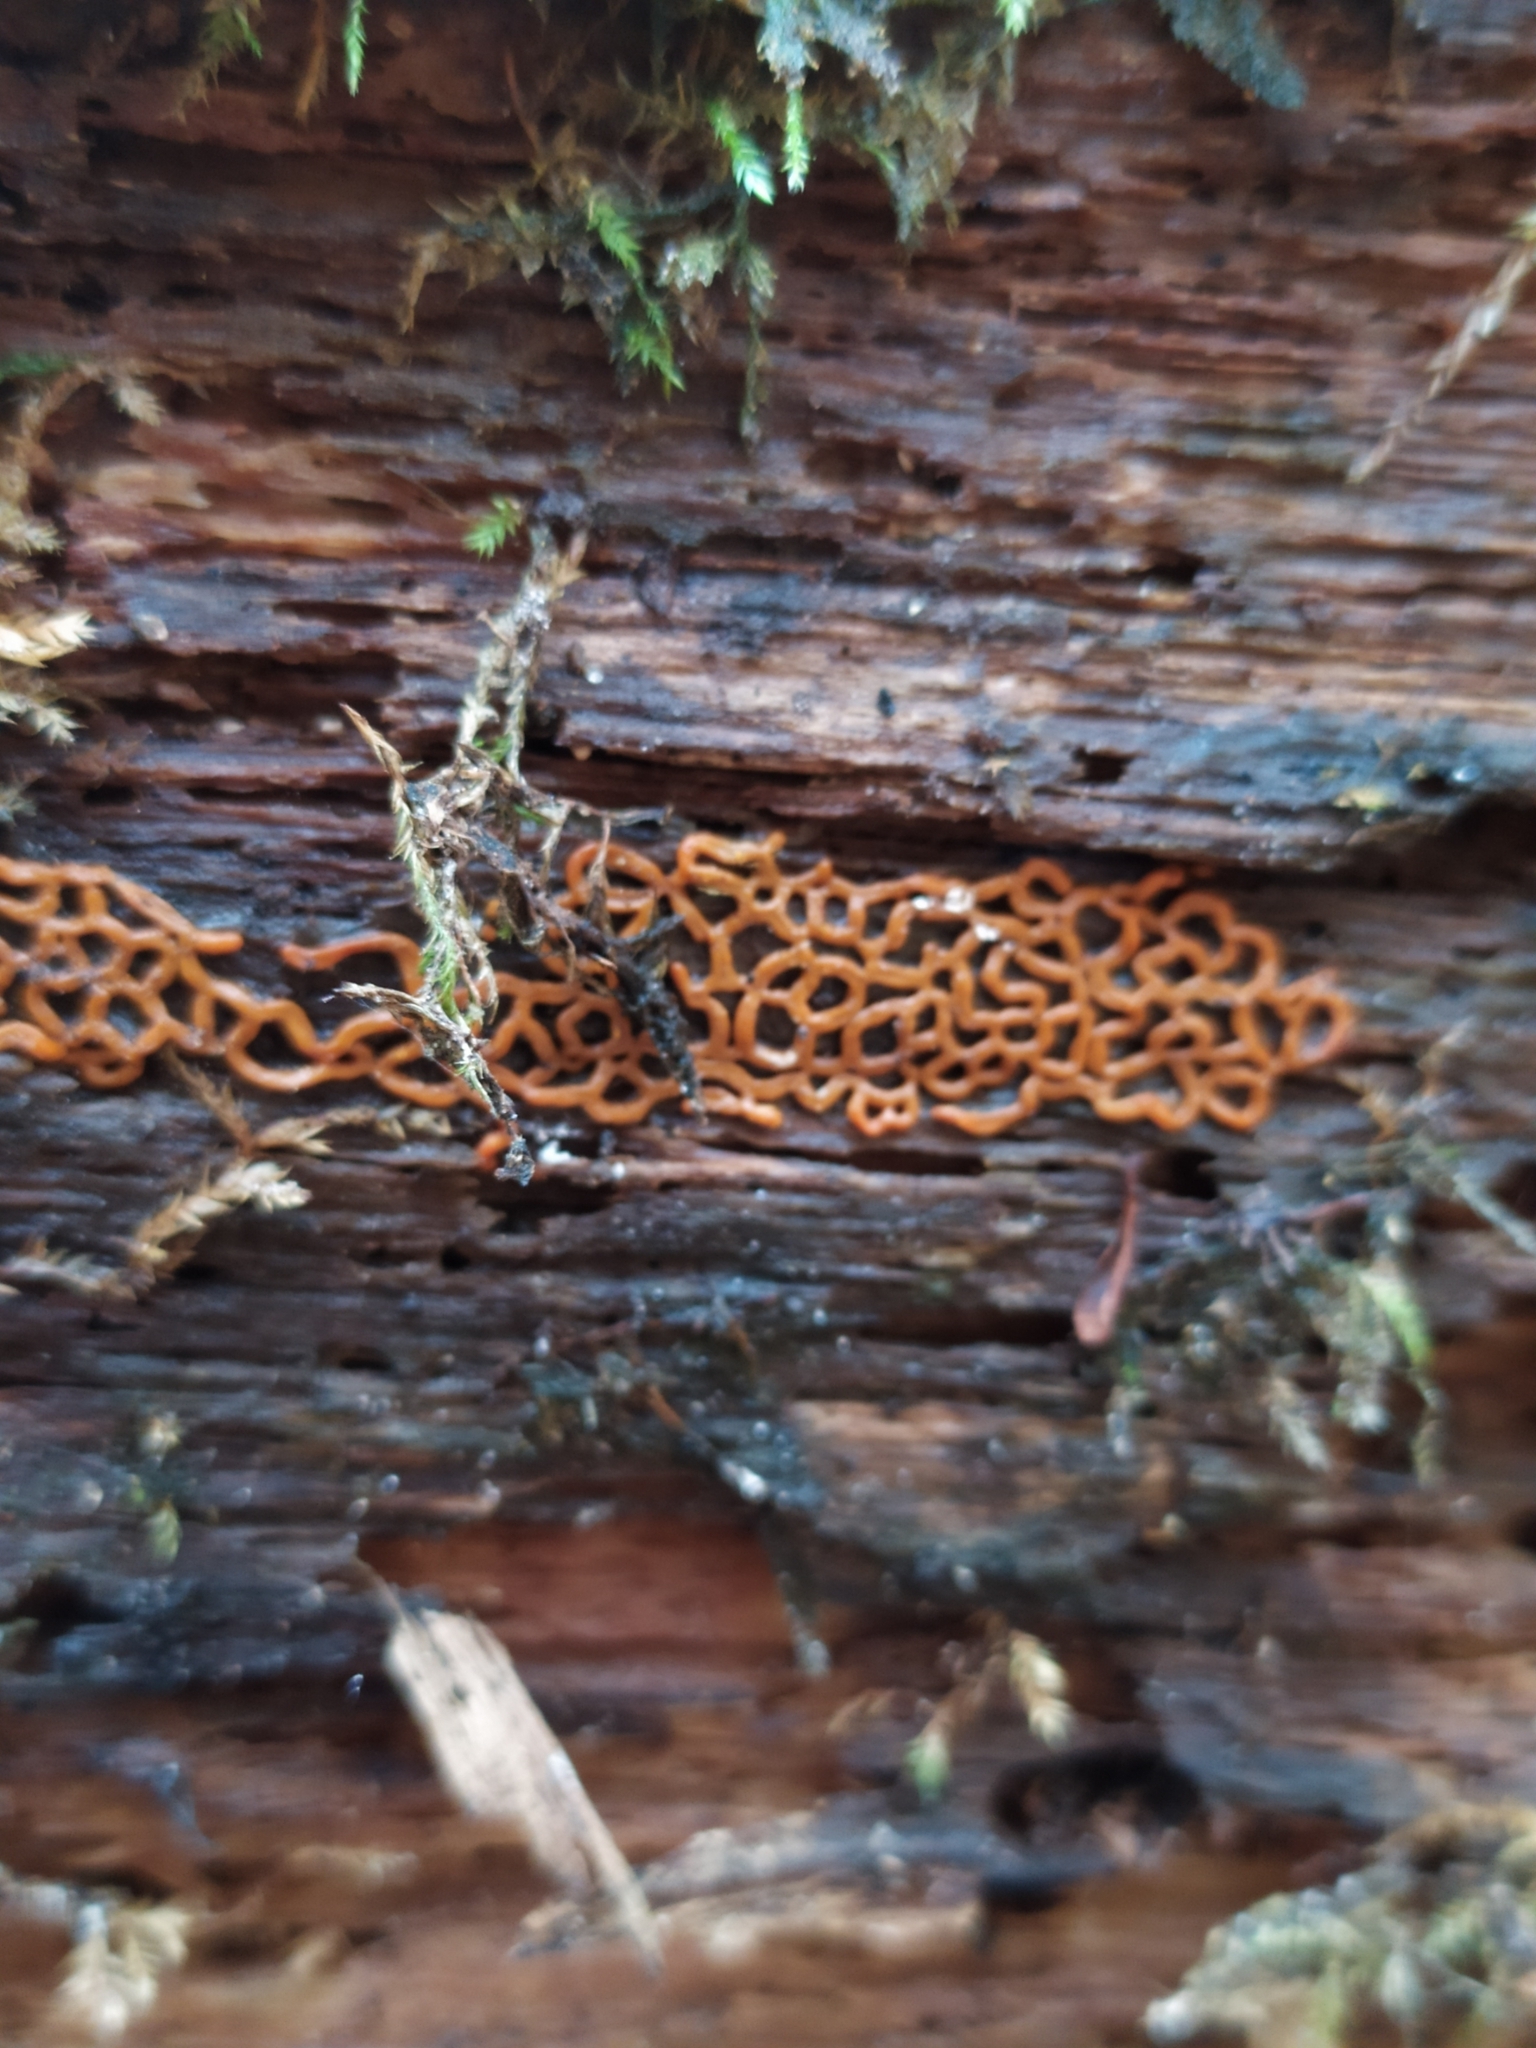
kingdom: Protozoa
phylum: Mycetozoa
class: Myxomycetes
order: Trichiales
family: Arcyriaceae
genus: Hemitrichia
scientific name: Hemitrichia serpula
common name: Pretzel slime mold
